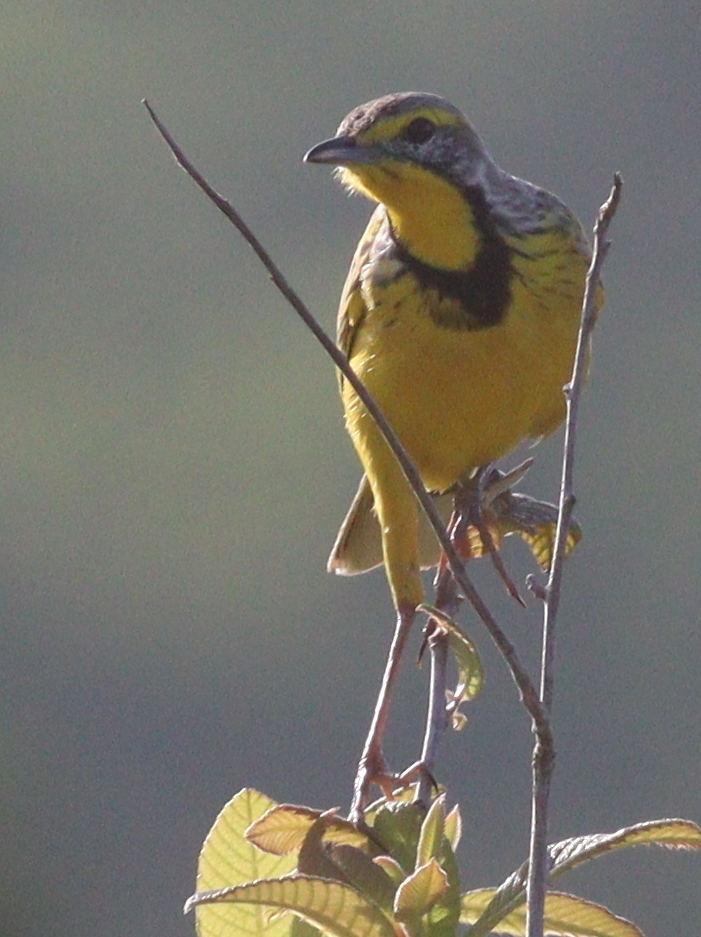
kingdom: Animalia
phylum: Chordata
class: Aves
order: Passeriformes
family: Motacillidae
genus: Macronyx
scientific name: Macronyx croceus
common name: Yellow-throated longclaw
